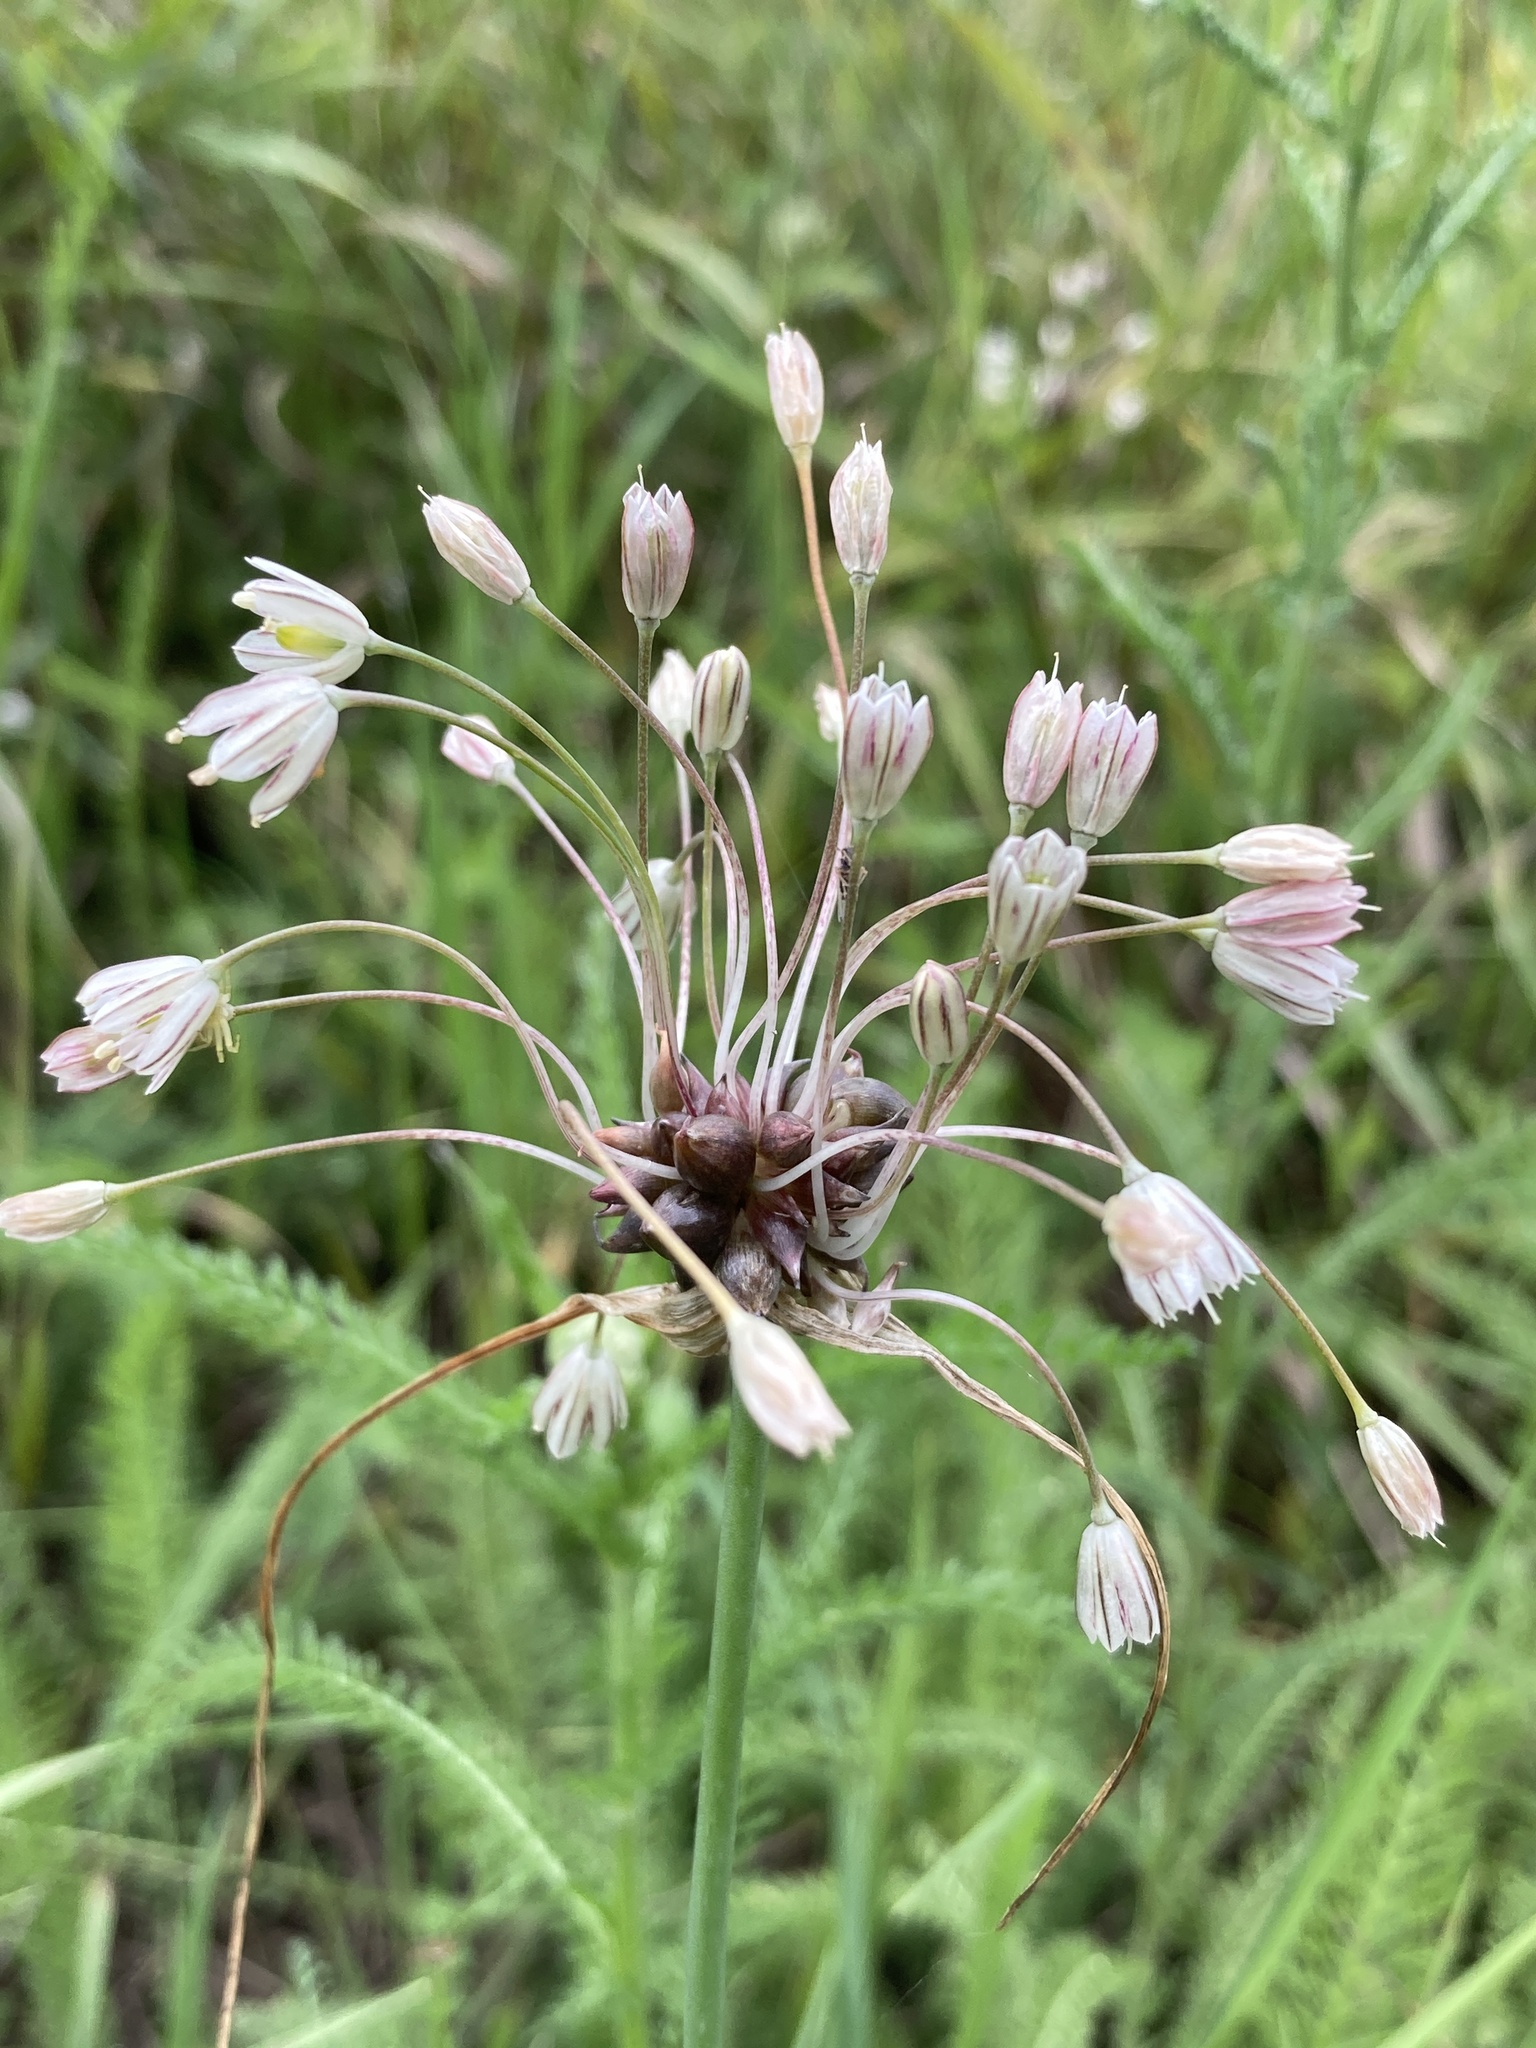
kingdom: Plantae
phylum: Tracheophyta
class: Liliopsida
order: Asparagales
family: Amaryllidaceae
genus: Allium
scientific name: Allium oleraceum
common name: Field garlic
